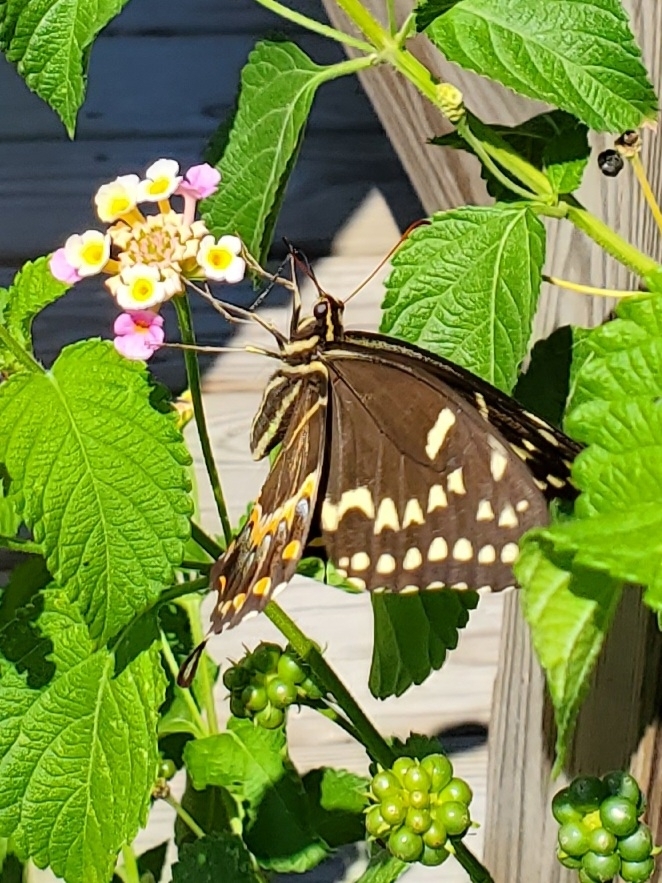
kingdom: Animalia
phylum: Arthropoda
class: Insecta
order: Lepidoptera
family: Papilionidae
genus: Papilio
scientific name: Papilio palamedes
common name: Palamedes swallowtail
